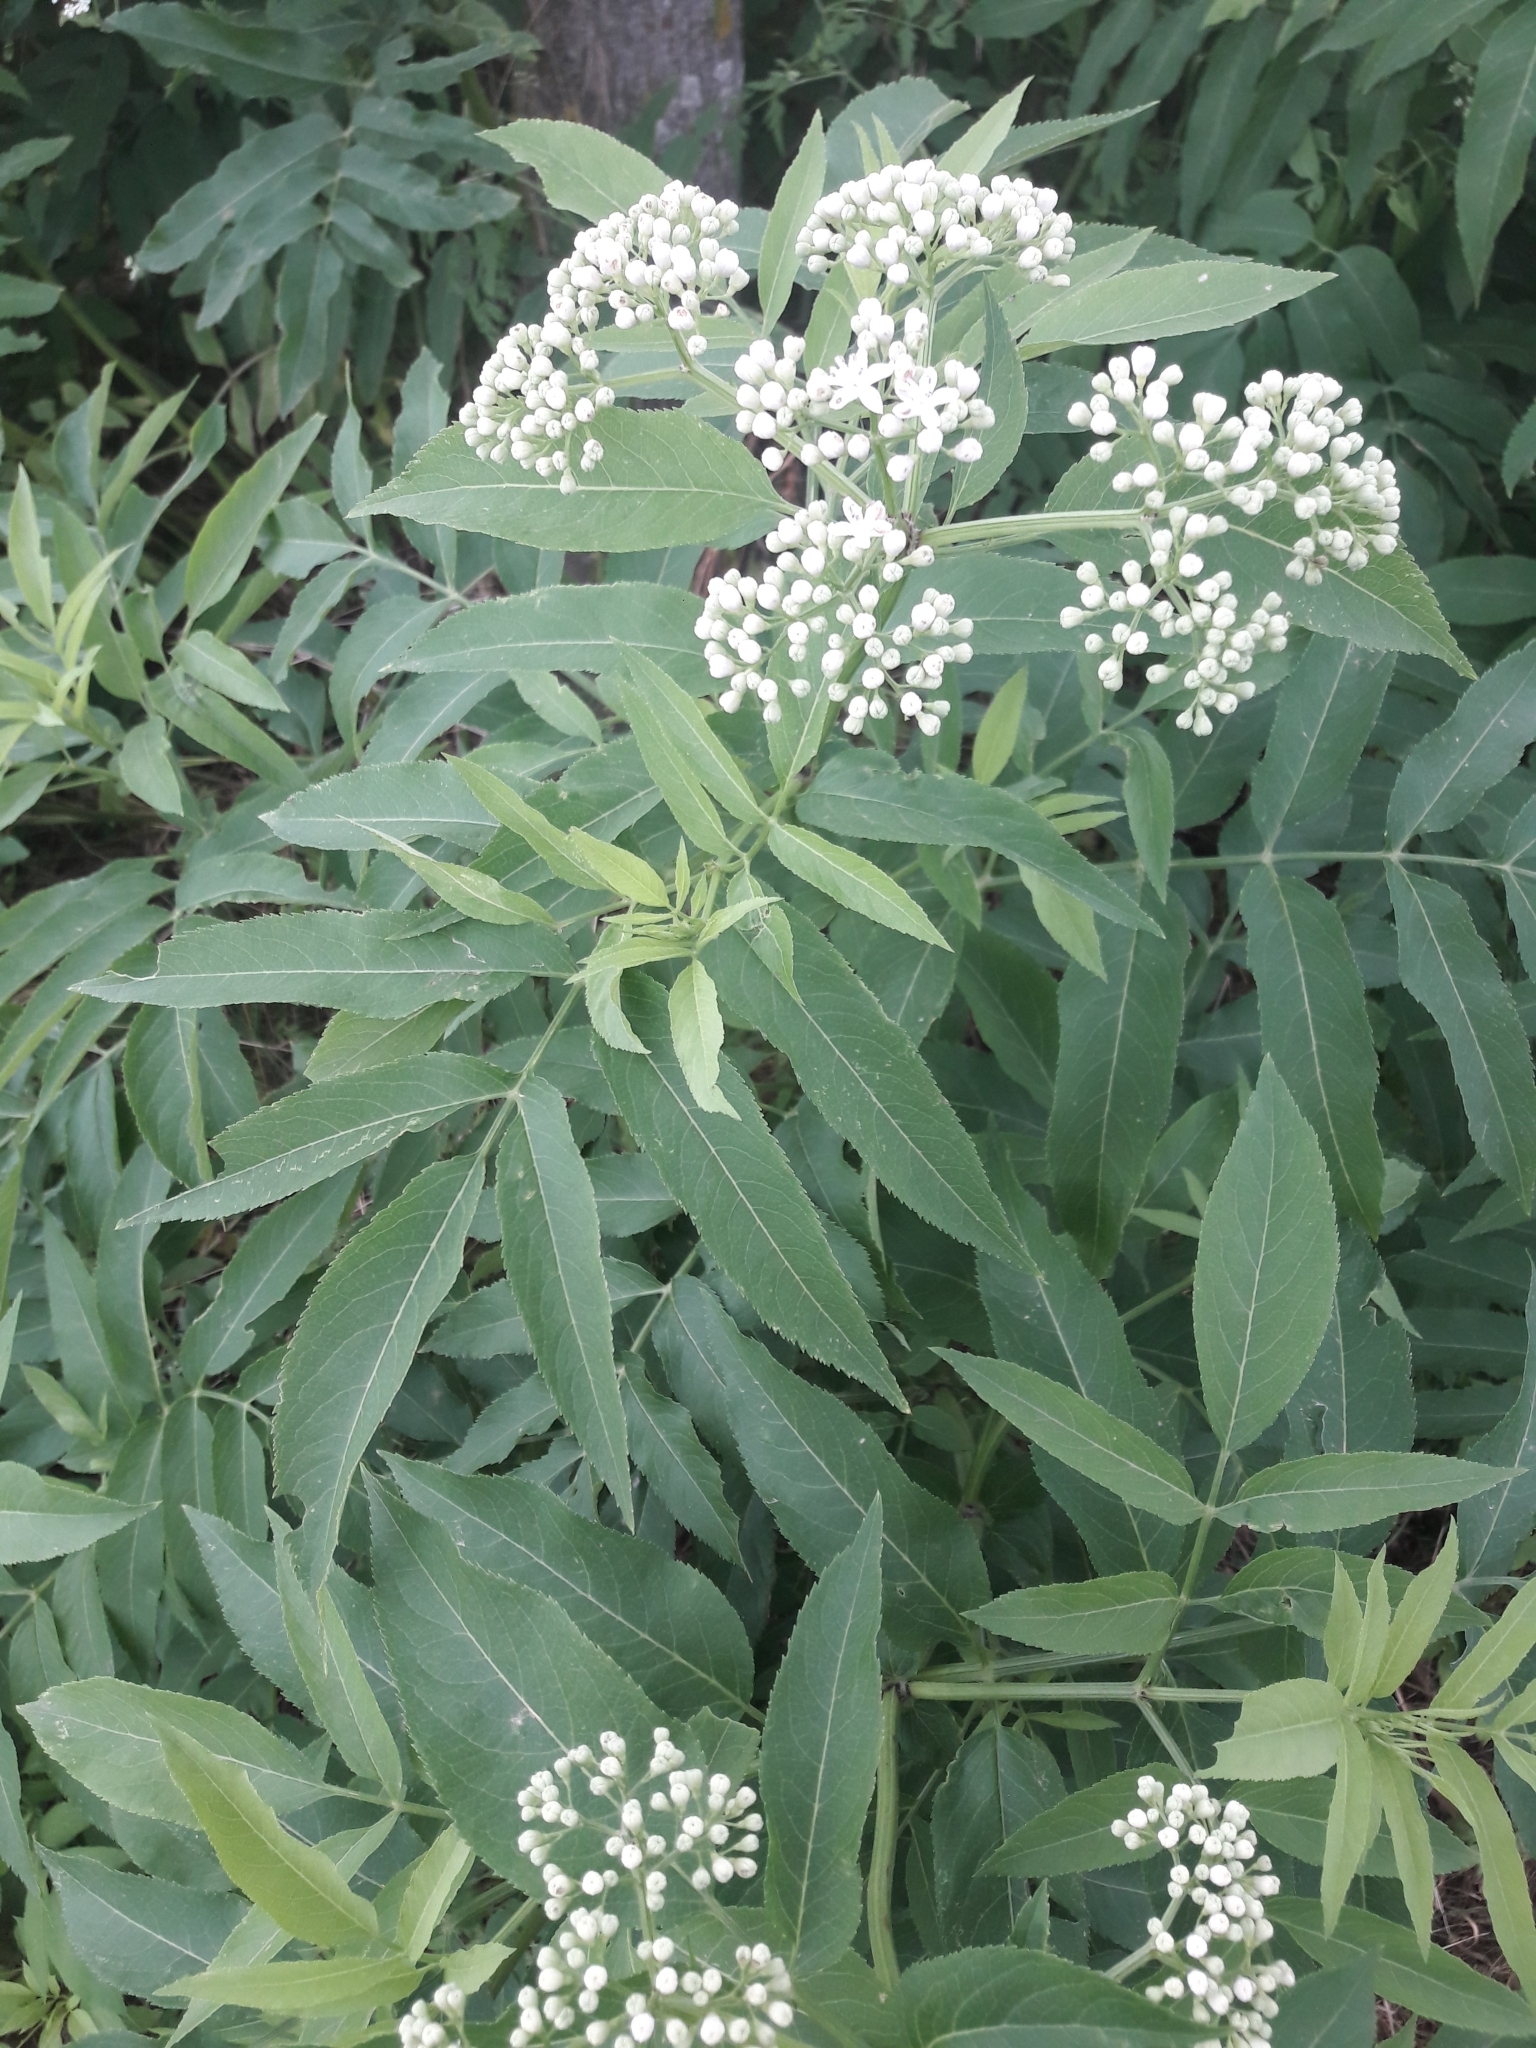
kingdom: Plantae
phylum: Tracheophyta
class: Magnoliopsida
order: Dipsacales
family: Viburnaceae
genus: Sambucus
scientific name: Sambucus ebulus
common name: Dwarf elder
